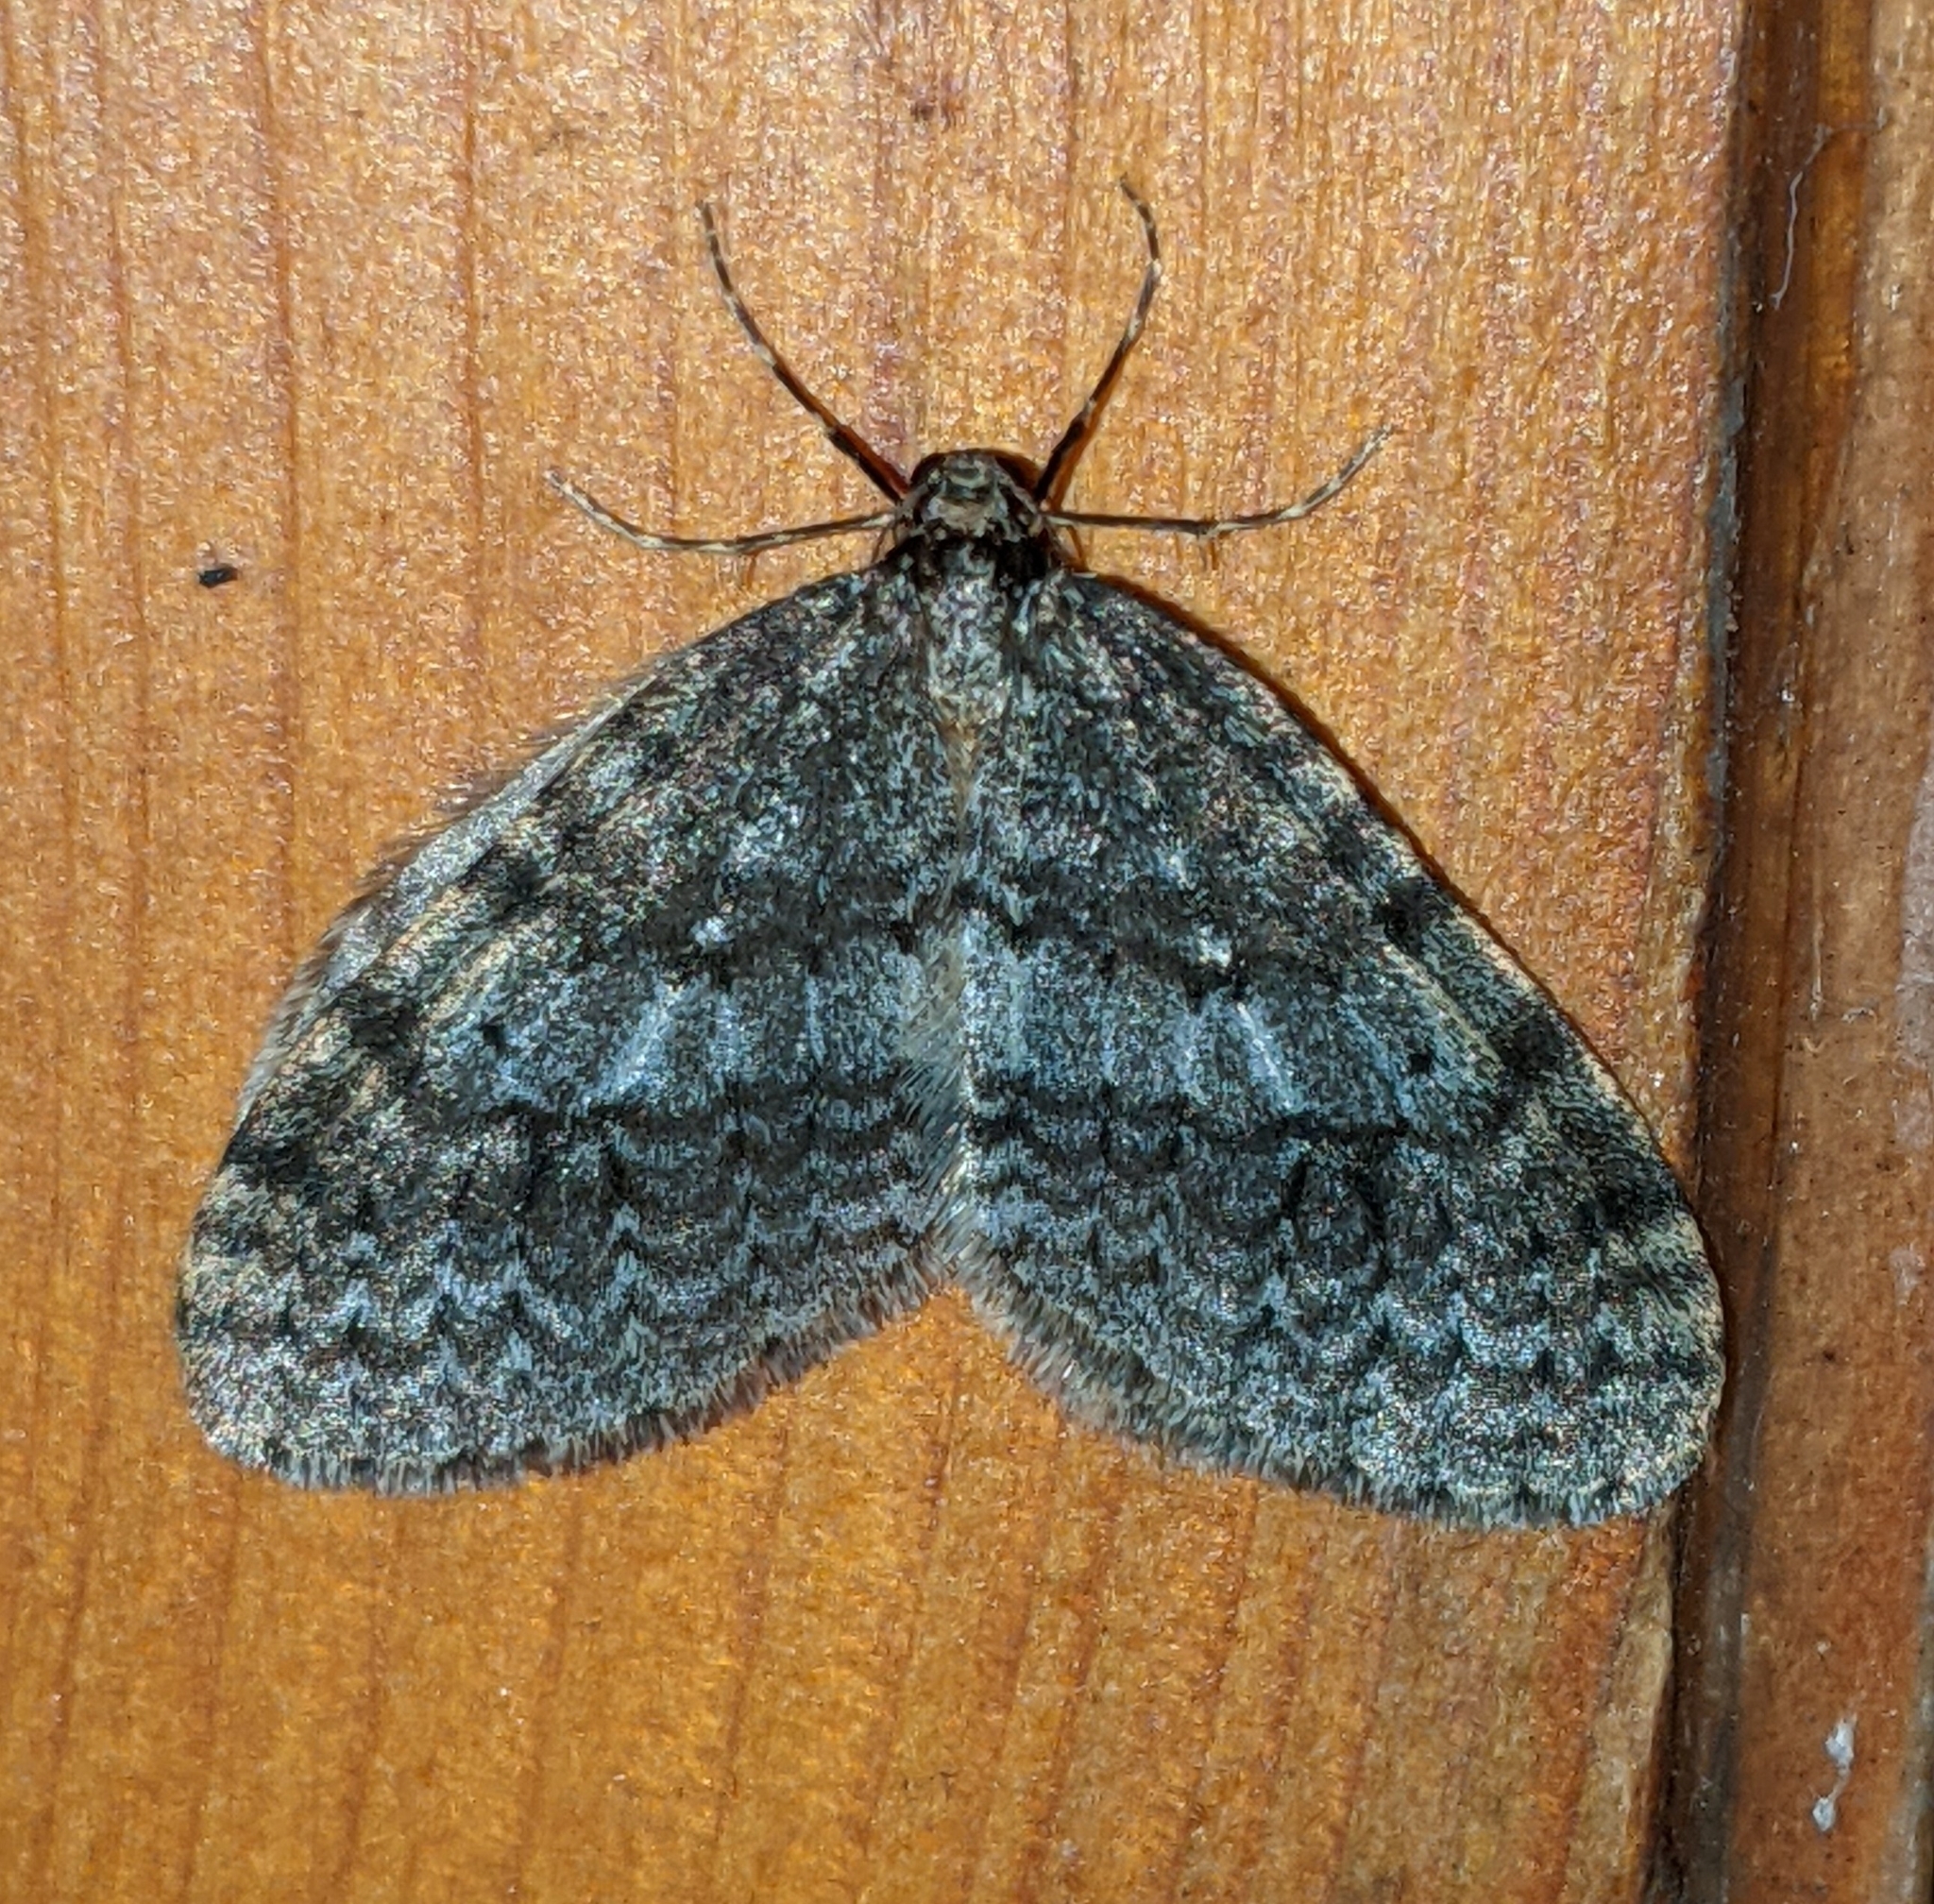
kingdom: Animalia
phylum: Arthropoda
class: Insecta
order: Lepidoptera
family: Geometridae
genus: Operophtera
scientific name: Operophtera brumata
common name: Winter moth
